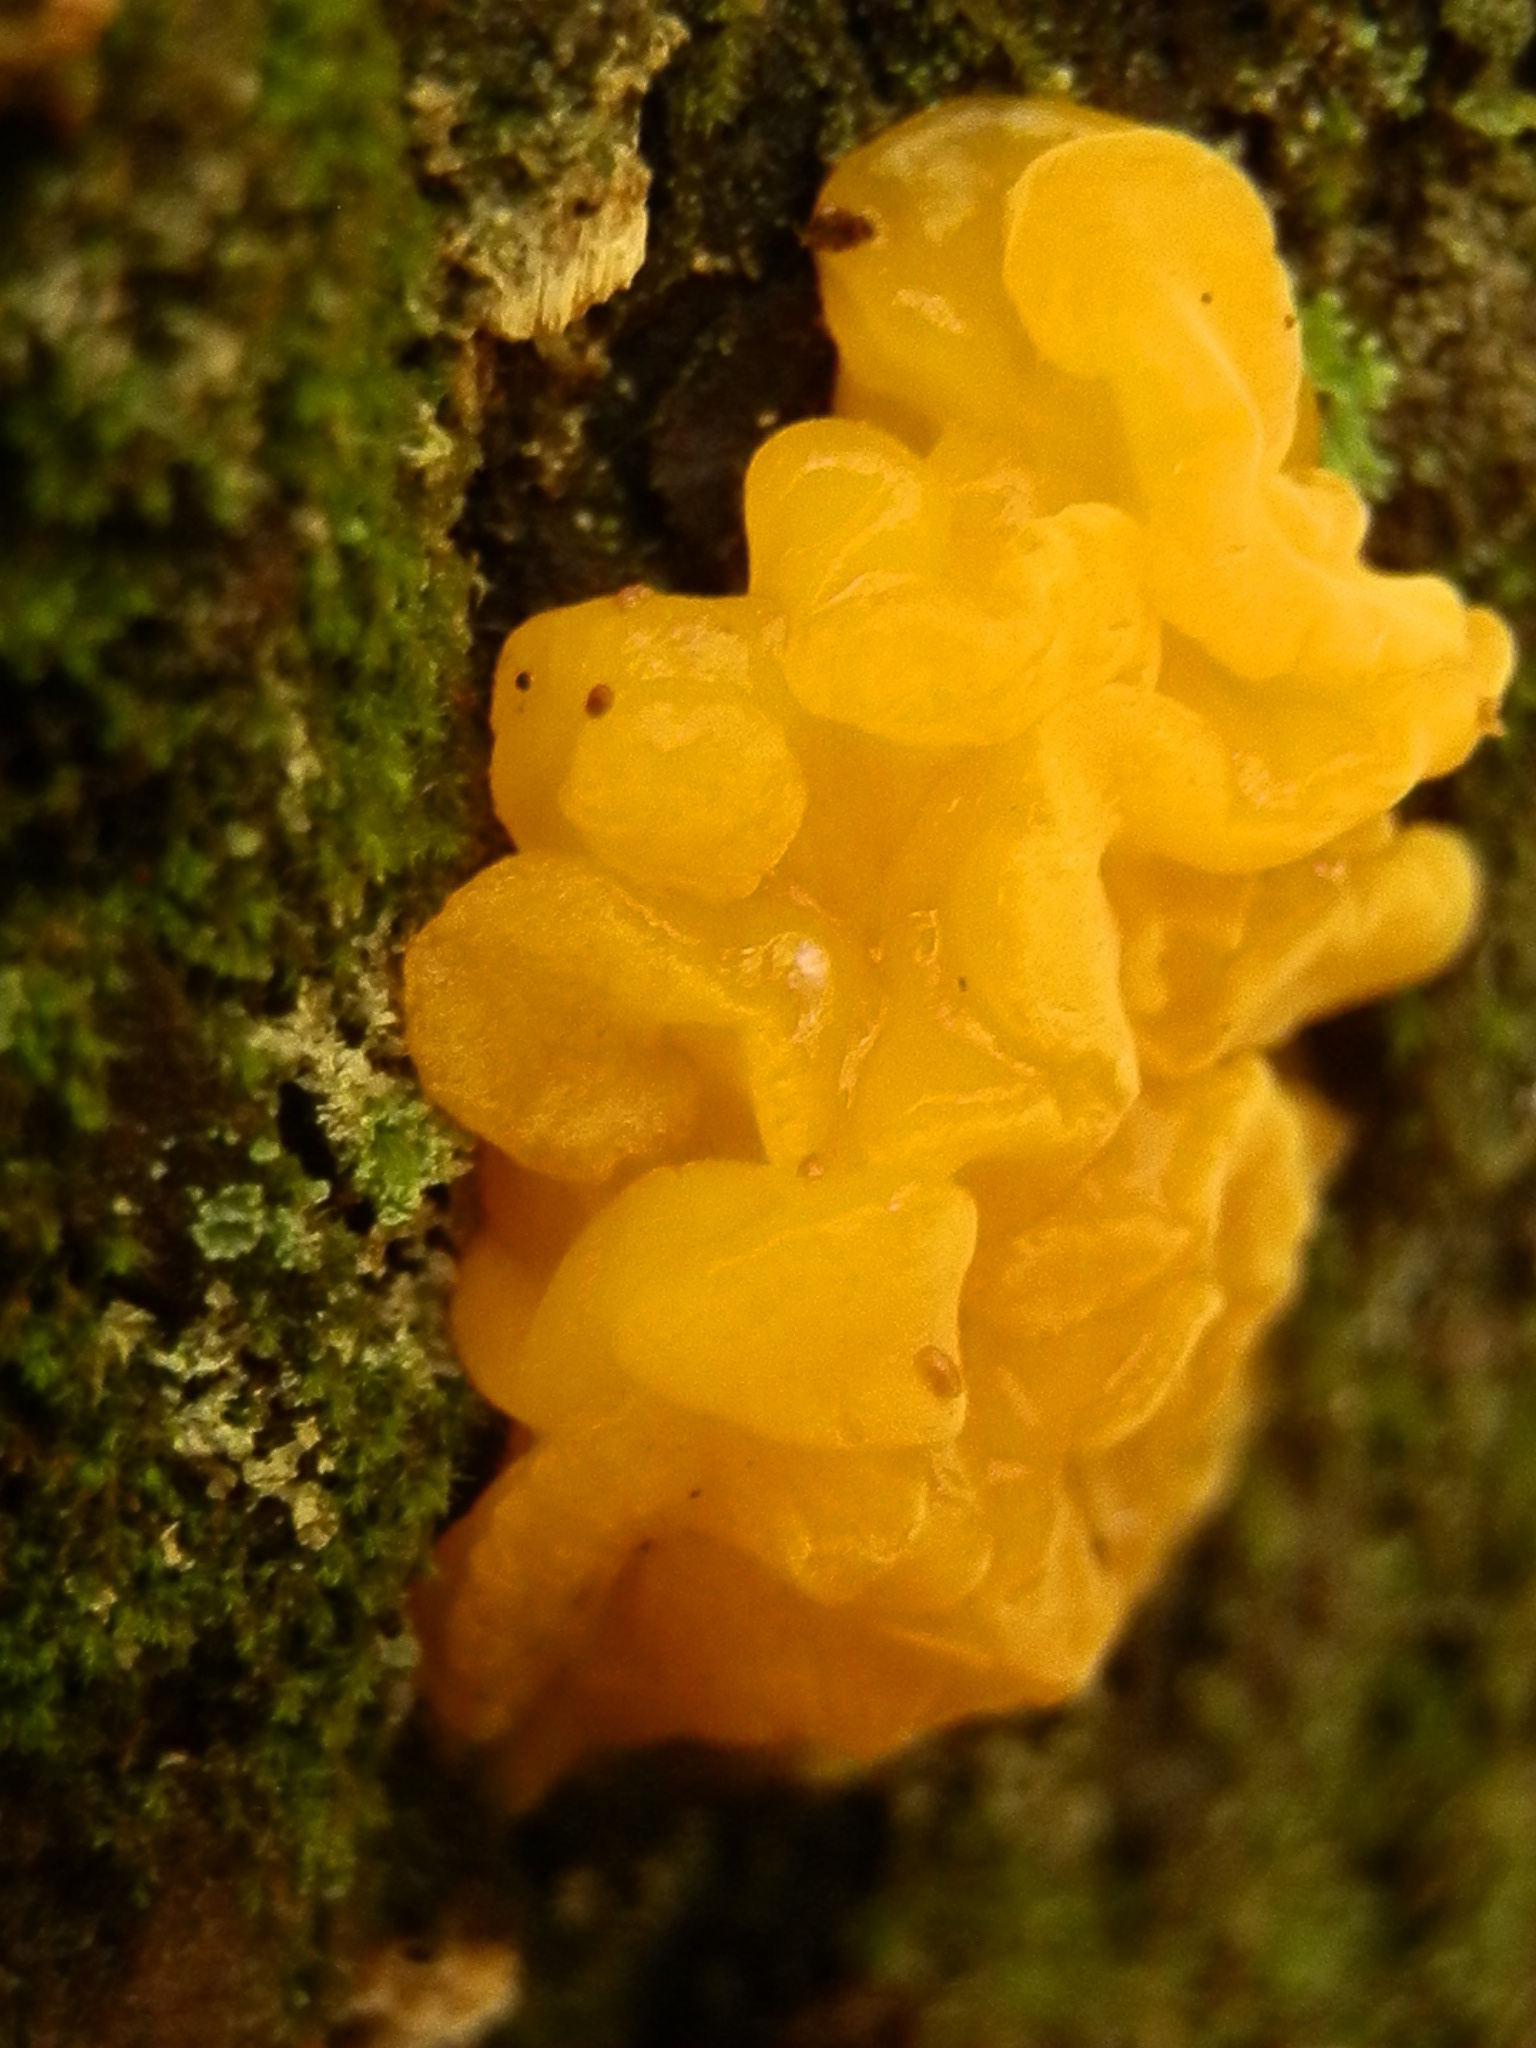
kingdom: Fungi
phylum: Basidiomycota
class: Dacrymycetes
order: Dacrymycetales
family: Dacrymycetaceae
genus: Dacrymyces
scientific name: Dacrymyces chrysospermus
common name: Orange jelly spot
